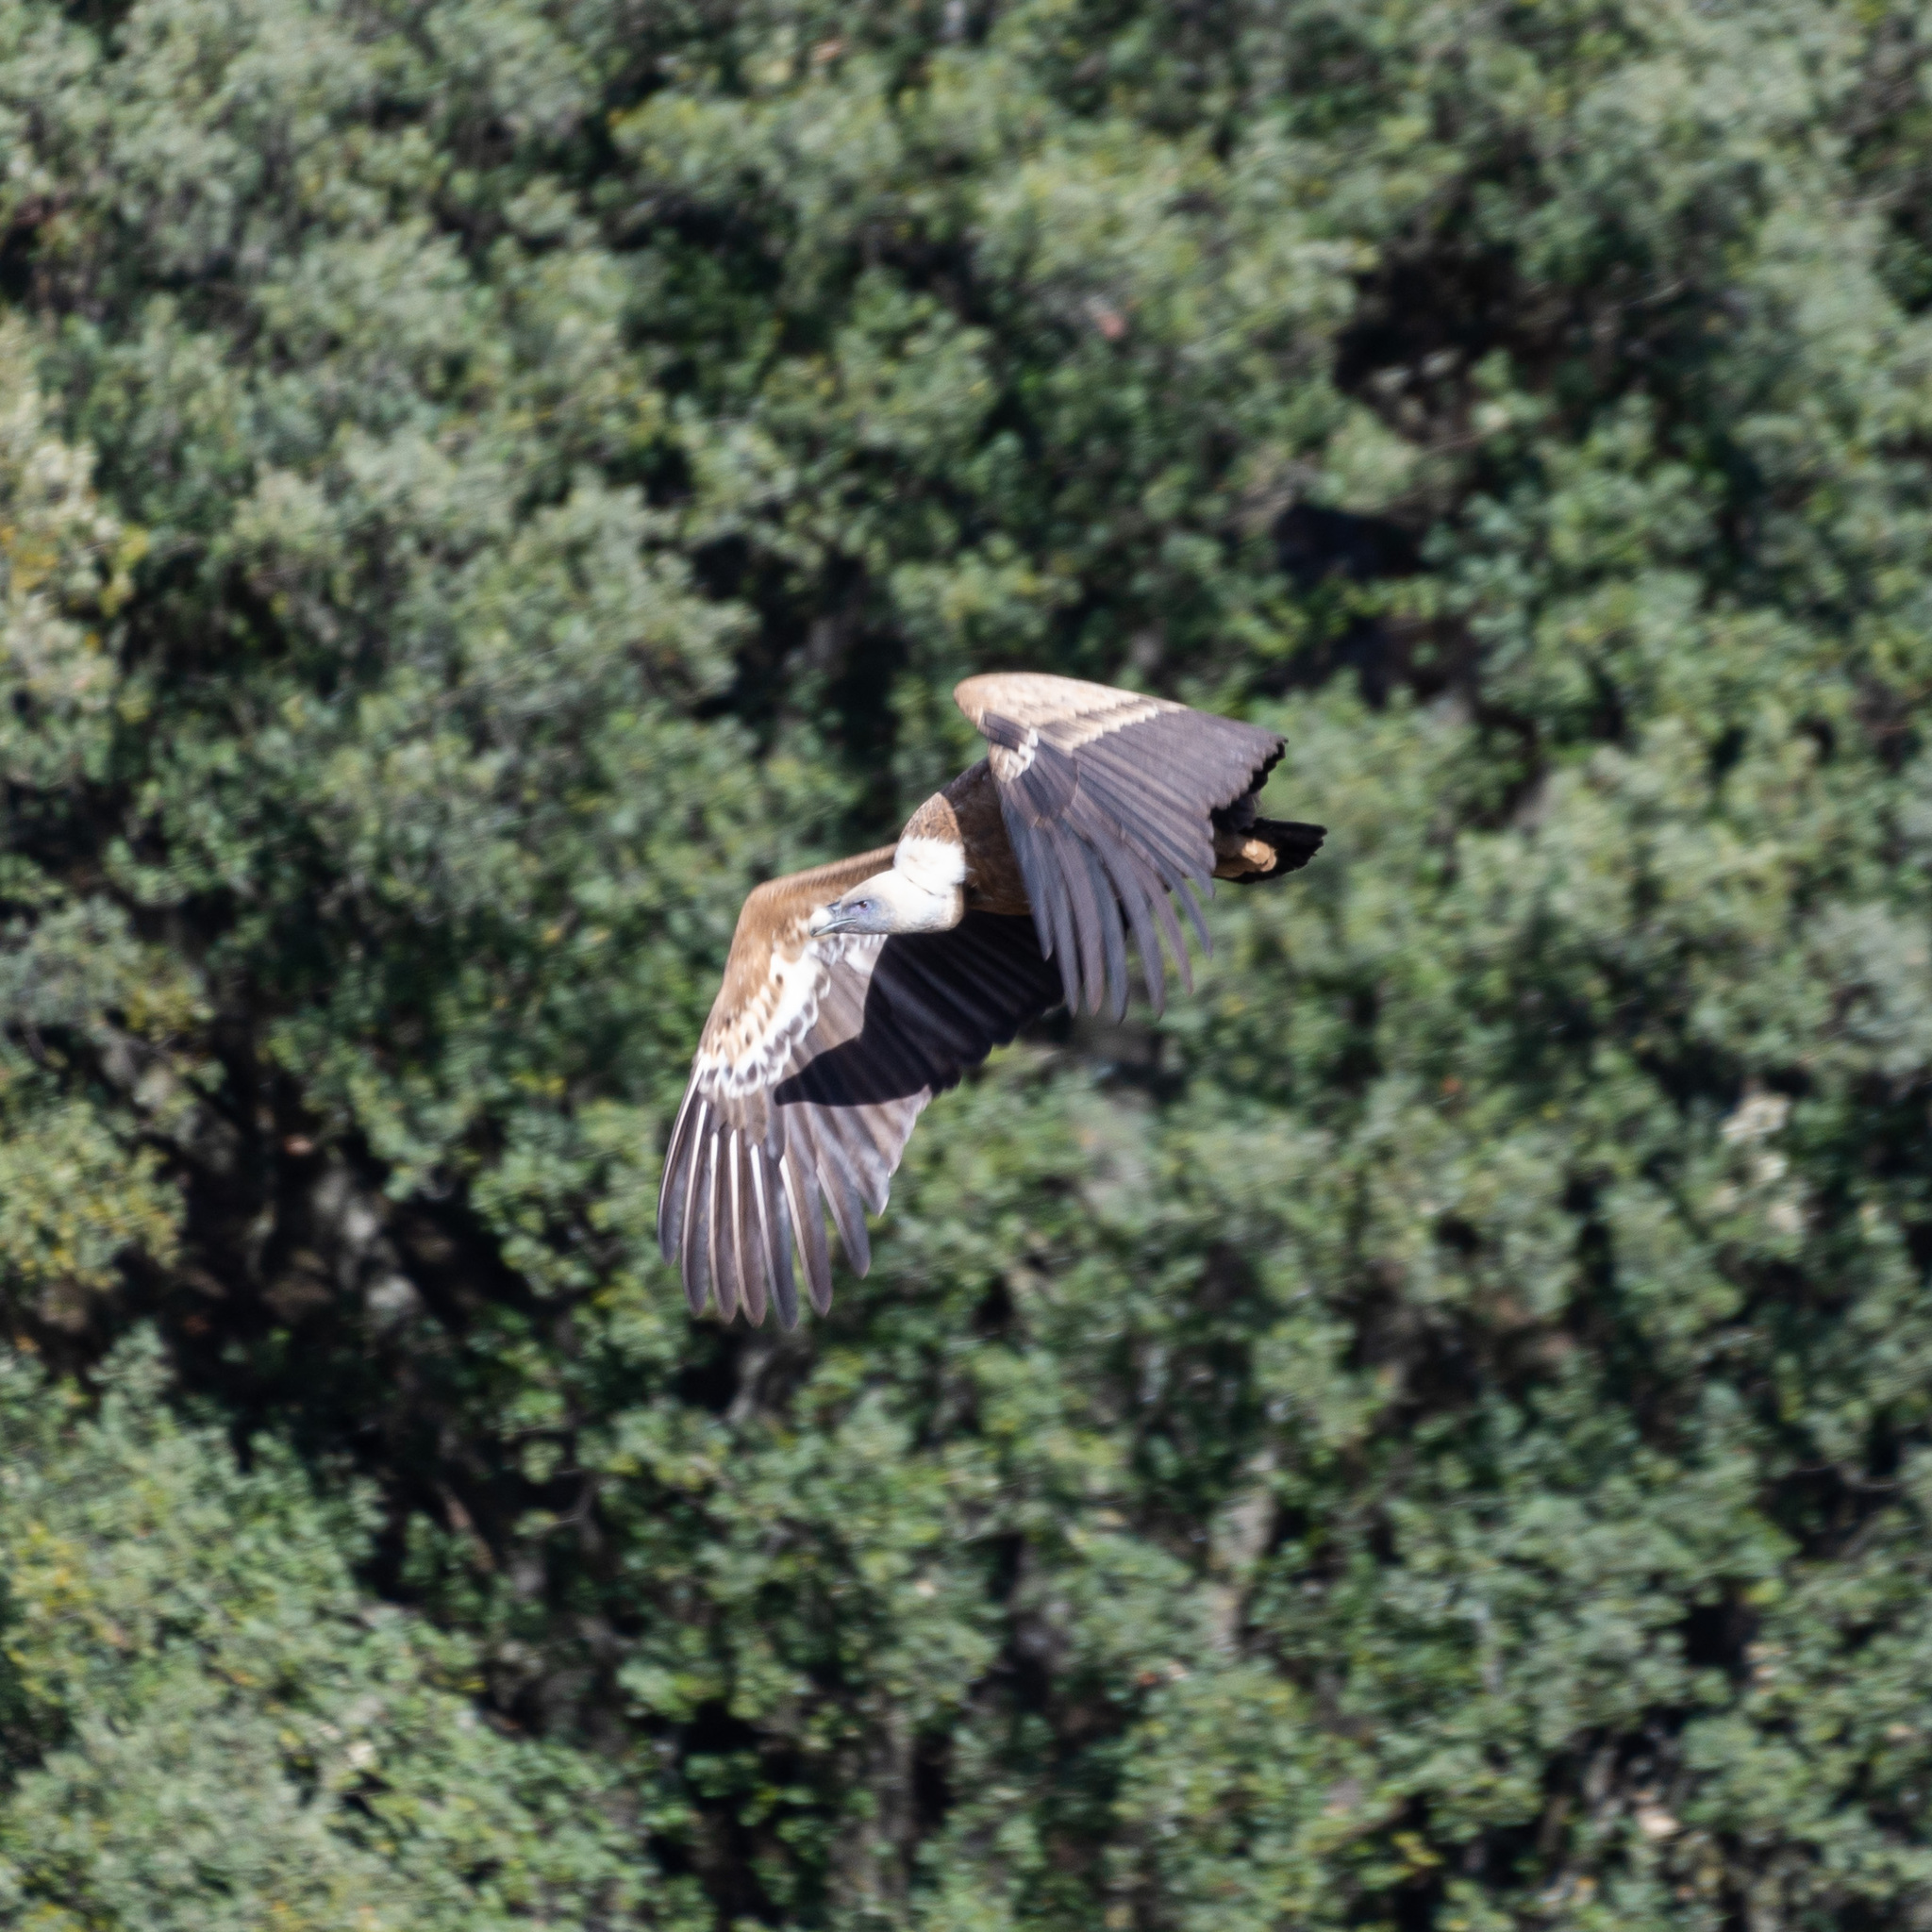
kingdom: Animalia
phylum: Chordata
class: Aves
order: Accipitriformes
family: Accipitridae
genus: Gyps
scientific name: Gyps fulvus
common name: Griffon vulture
